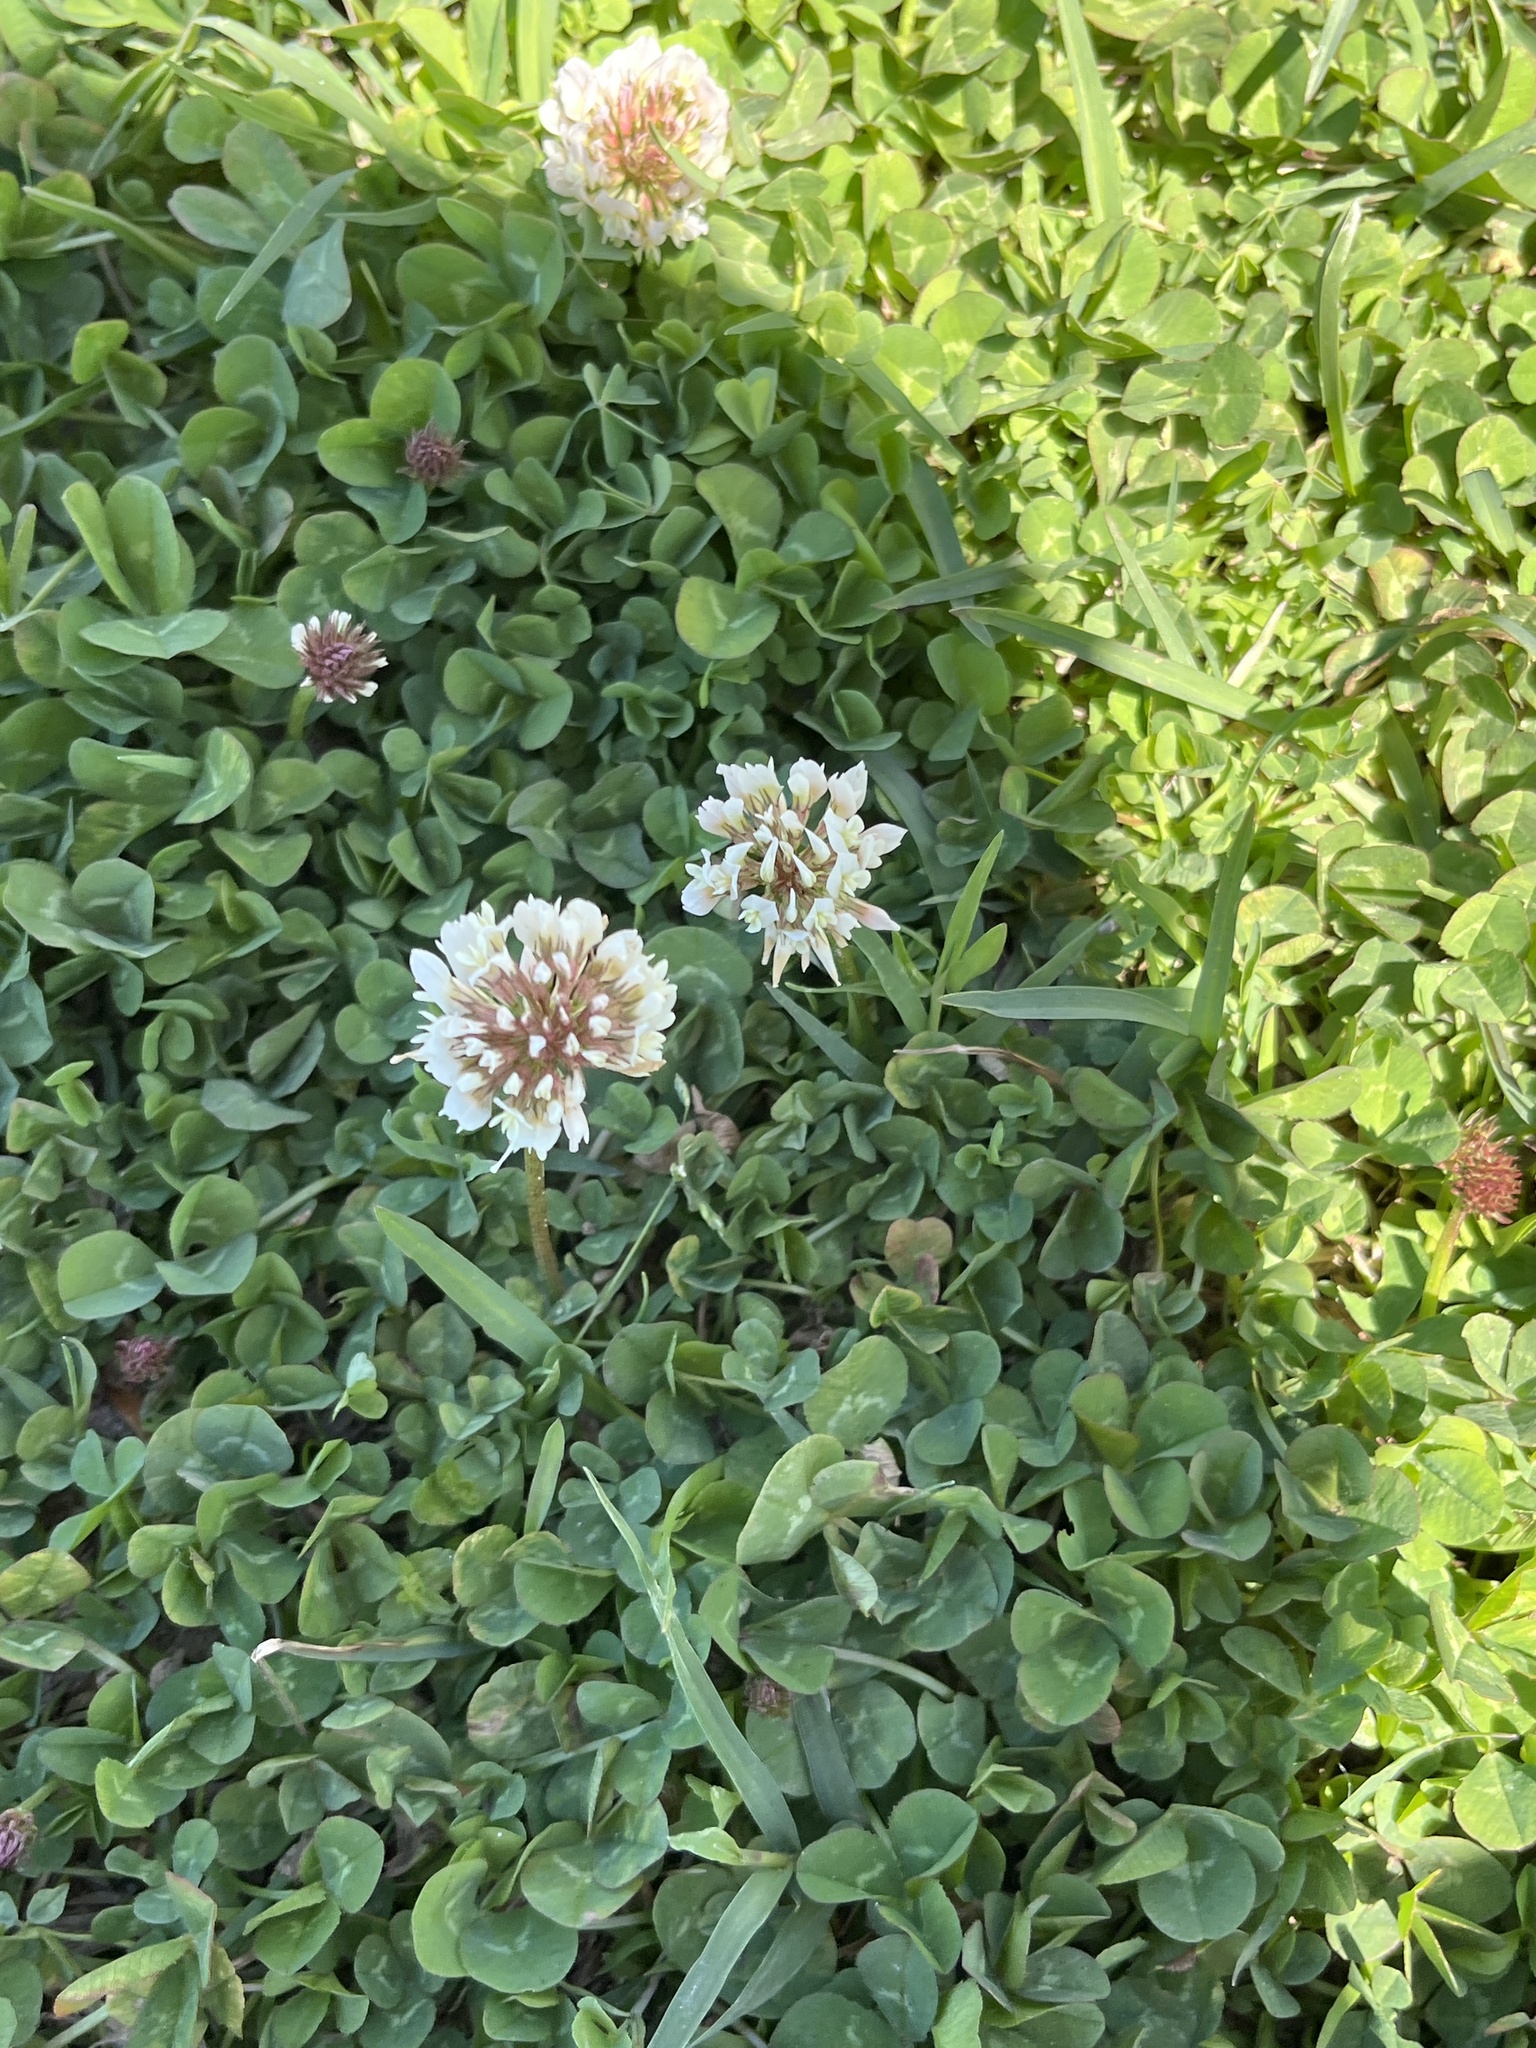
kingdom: Plantae
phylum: Tracheophyta
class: Magnoliopsida
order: Fabales
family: Fabaceae
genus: Trifolium
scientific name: Trifolium repens
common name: White clover
